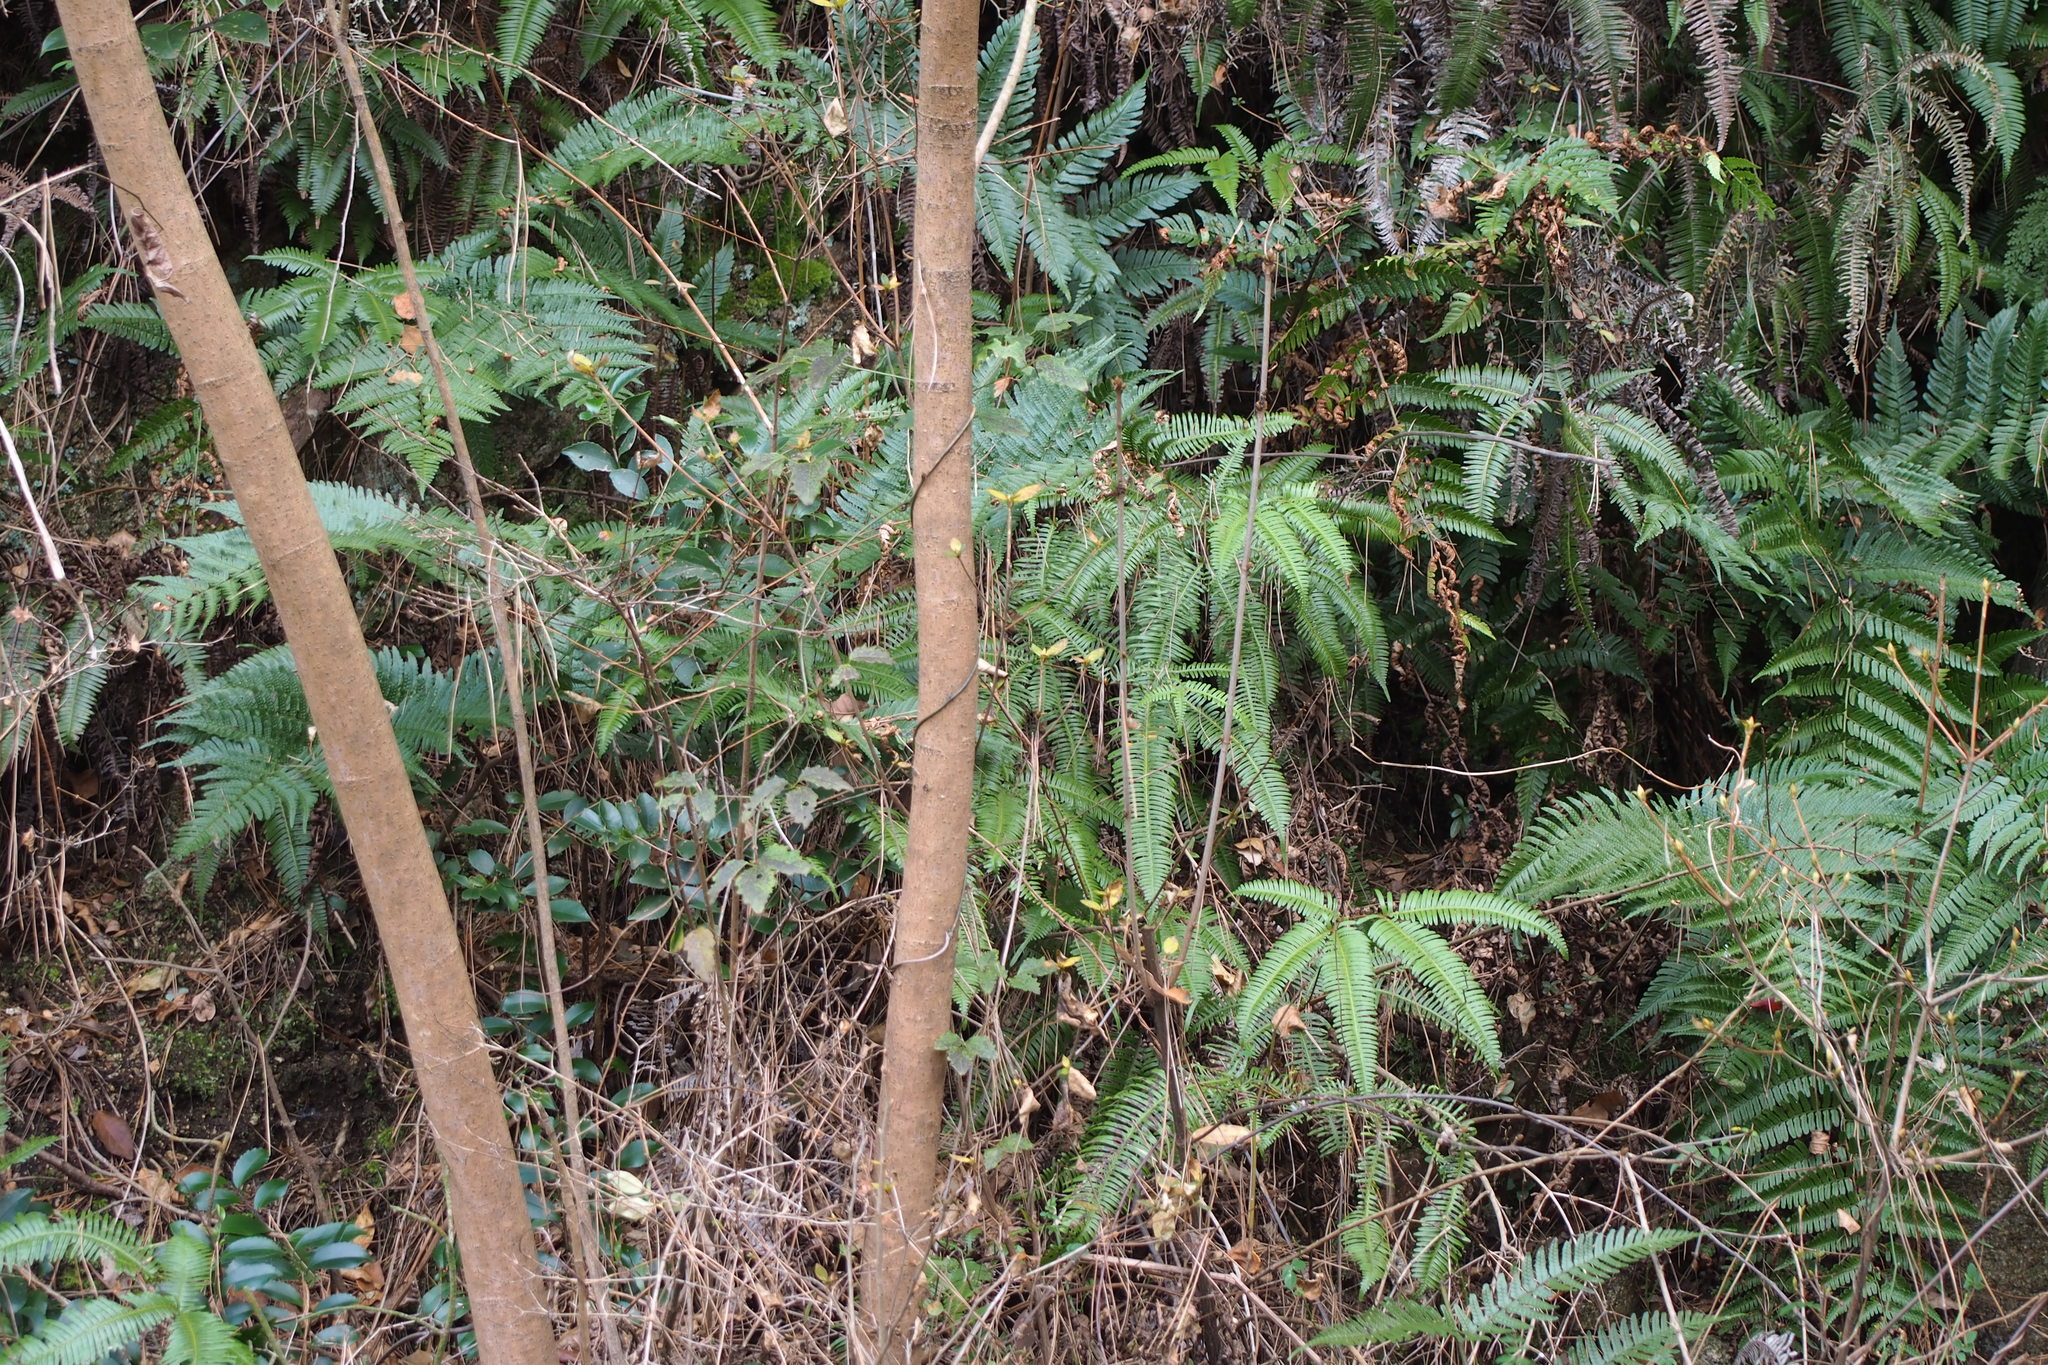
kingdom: Plantae
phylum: Tracheophyta
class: Polypodiopsida
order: Gleicheniales
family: Gleicheniaceae
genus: Dicranopteris
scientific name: Dicranopteris linearis
